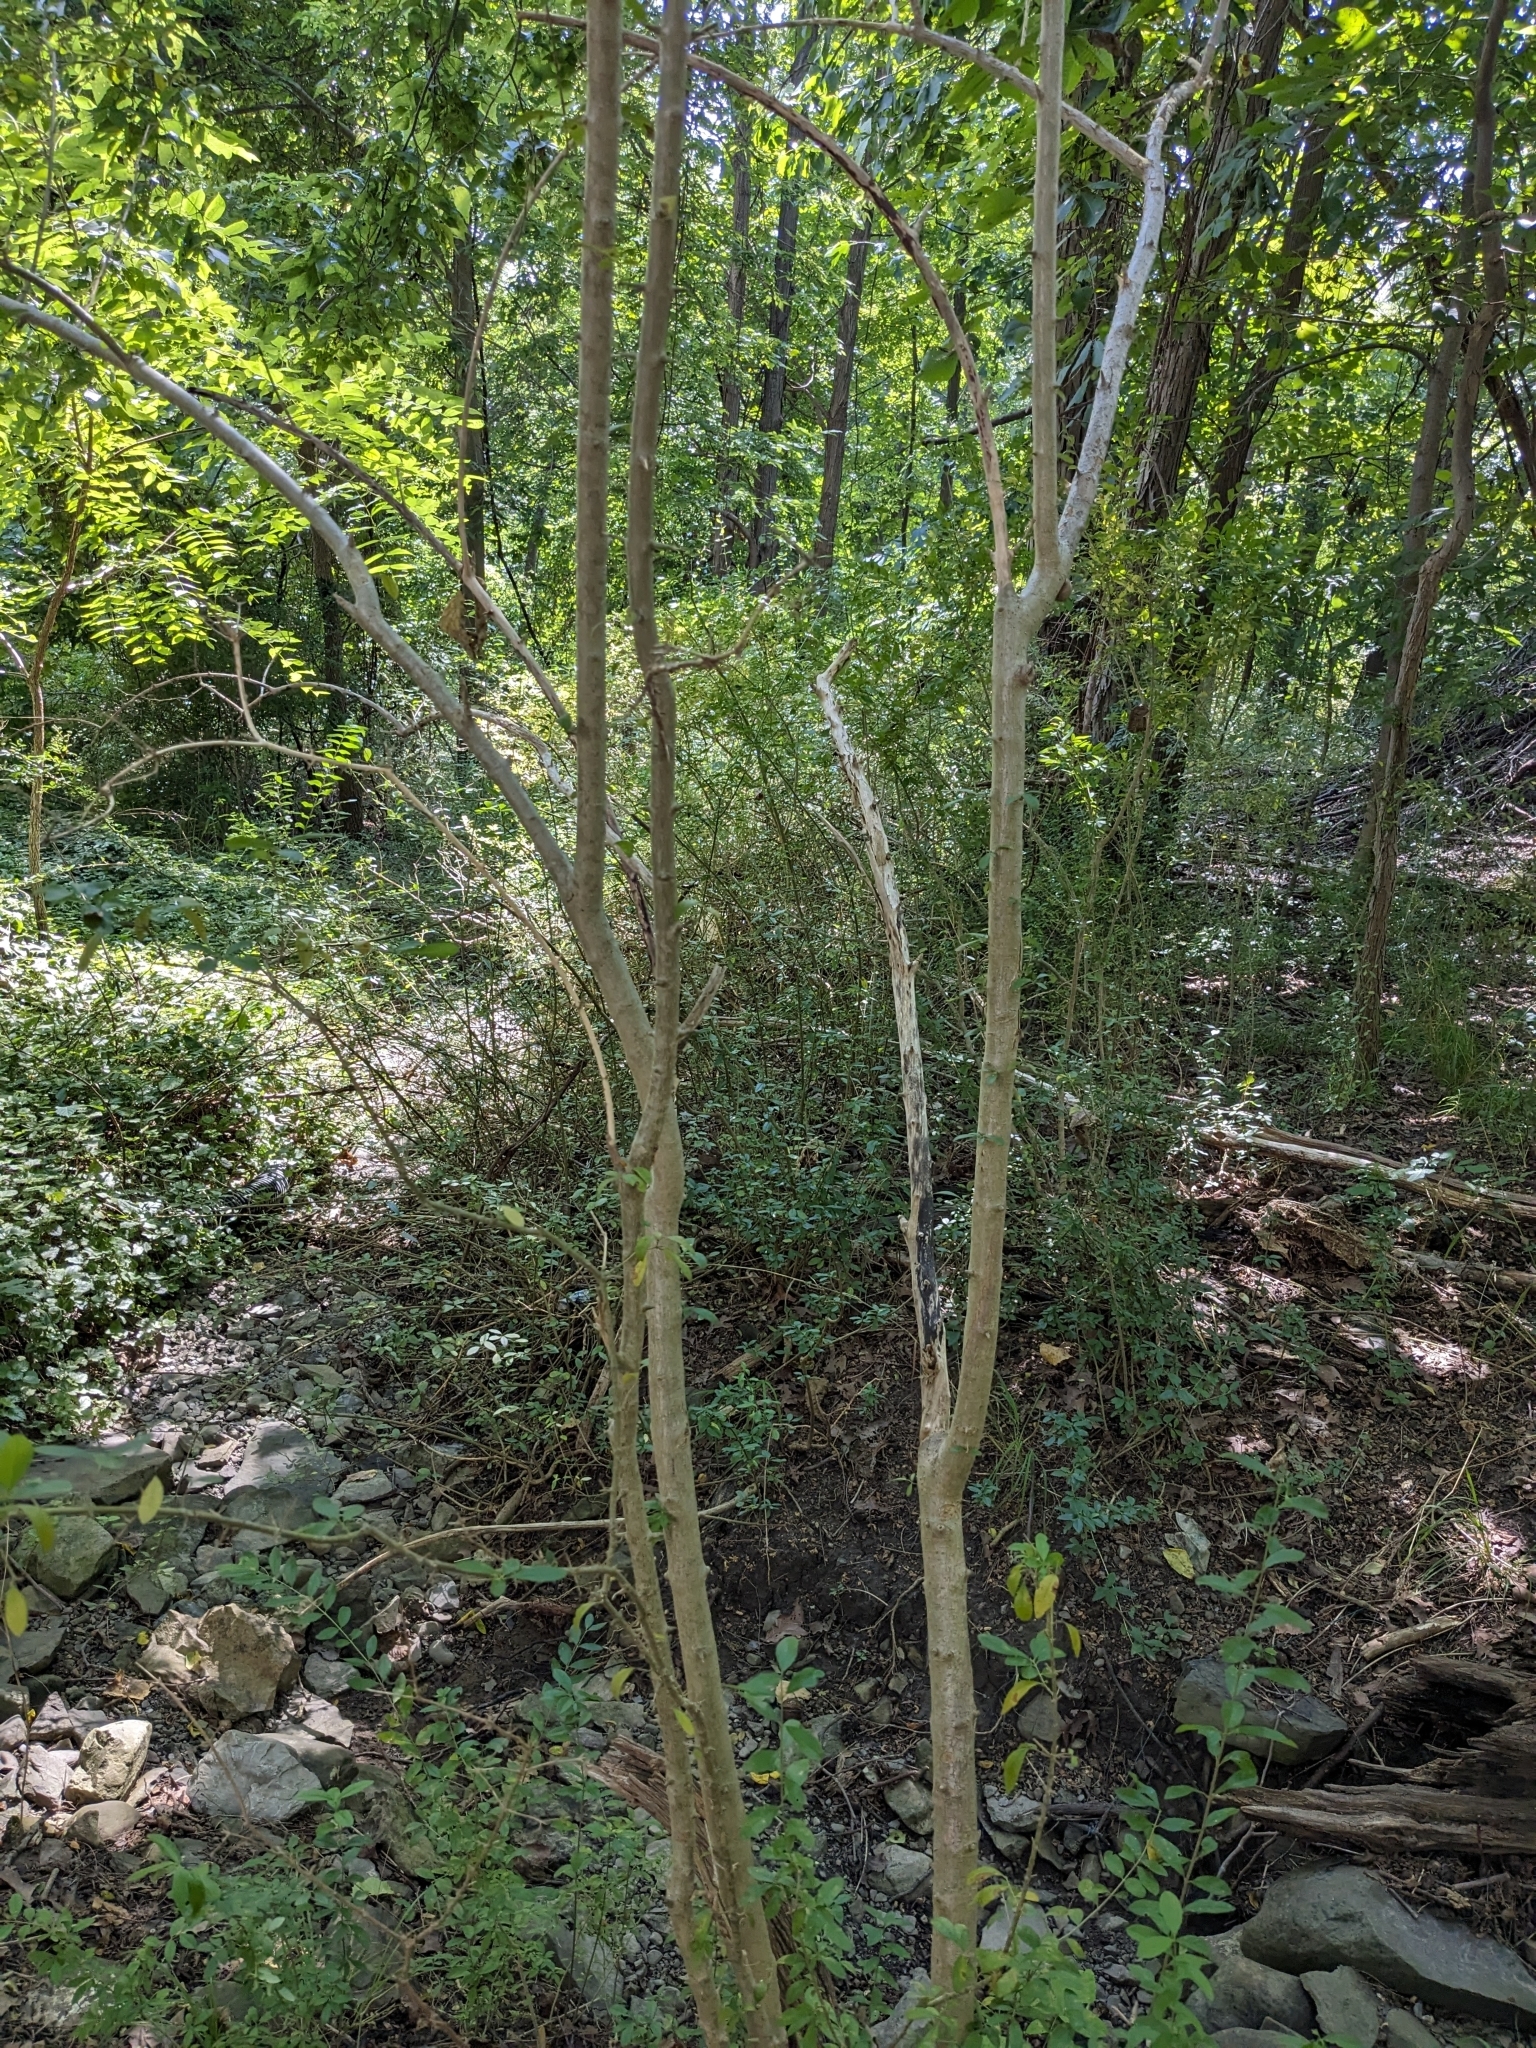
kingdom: Plantae
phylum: Tracheophyta
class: Magnoliopsida
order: Lamiales
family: Oleaceae
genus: Ligustrum
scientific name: Ligustrum obtusifolium
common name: Border privet
